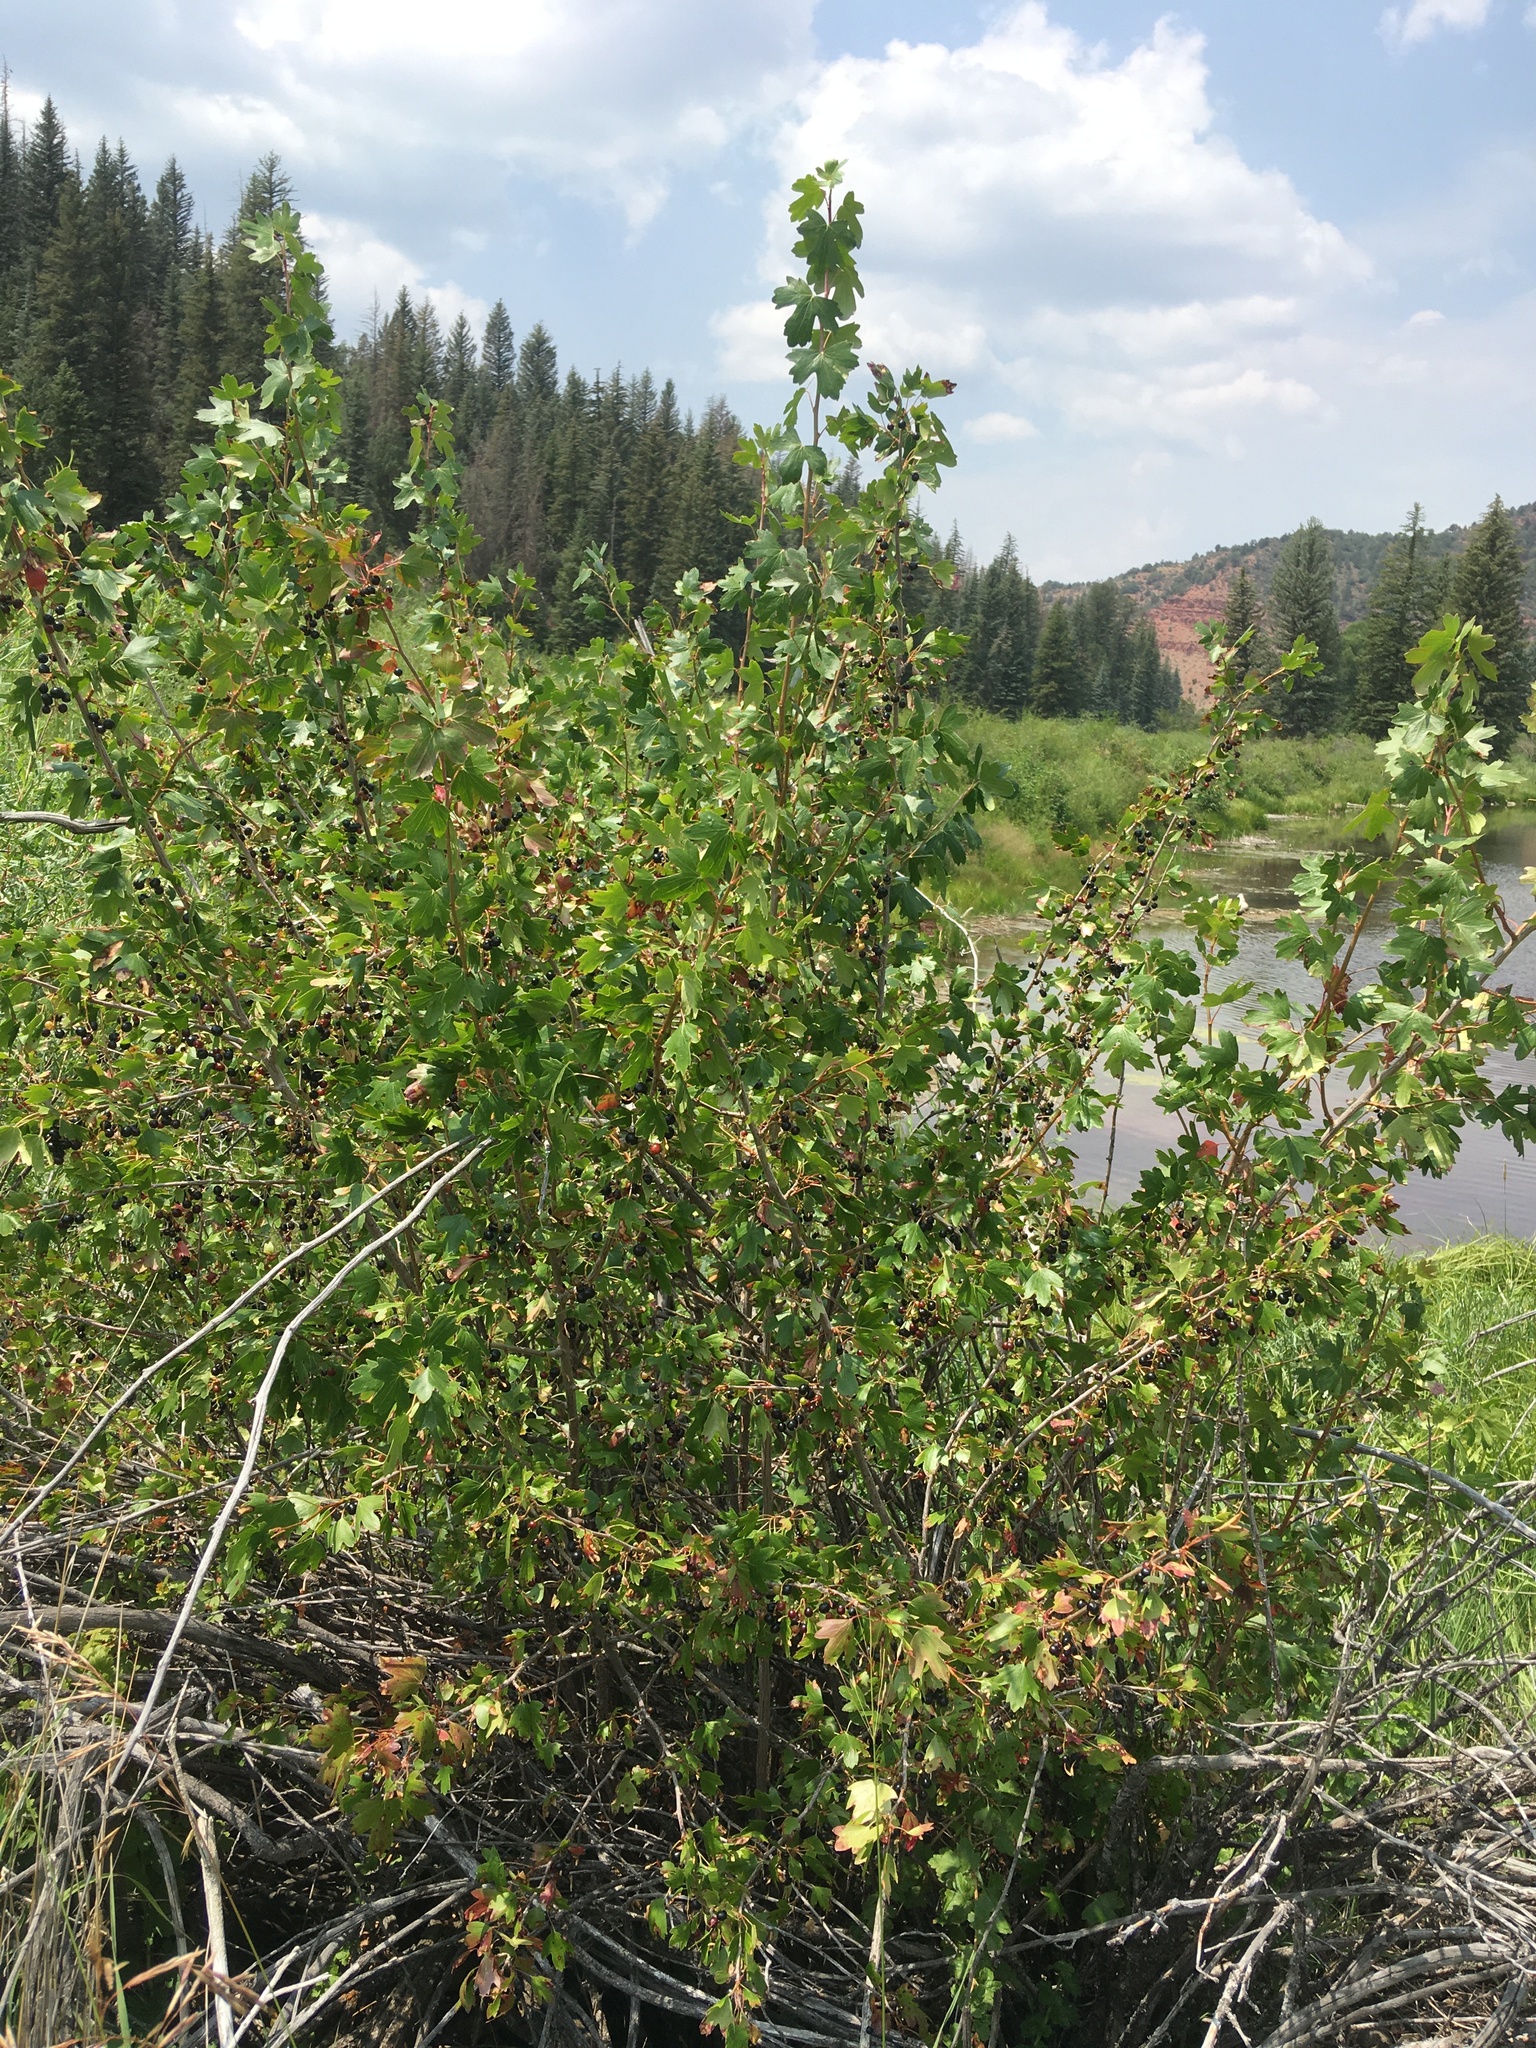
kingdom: Plantae
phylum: Tracheophyta
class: Magnoliopsida
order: Saxifragales
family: Grossulariaceae
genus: Ribes
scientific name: Ribes aureum
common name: Golden currant
